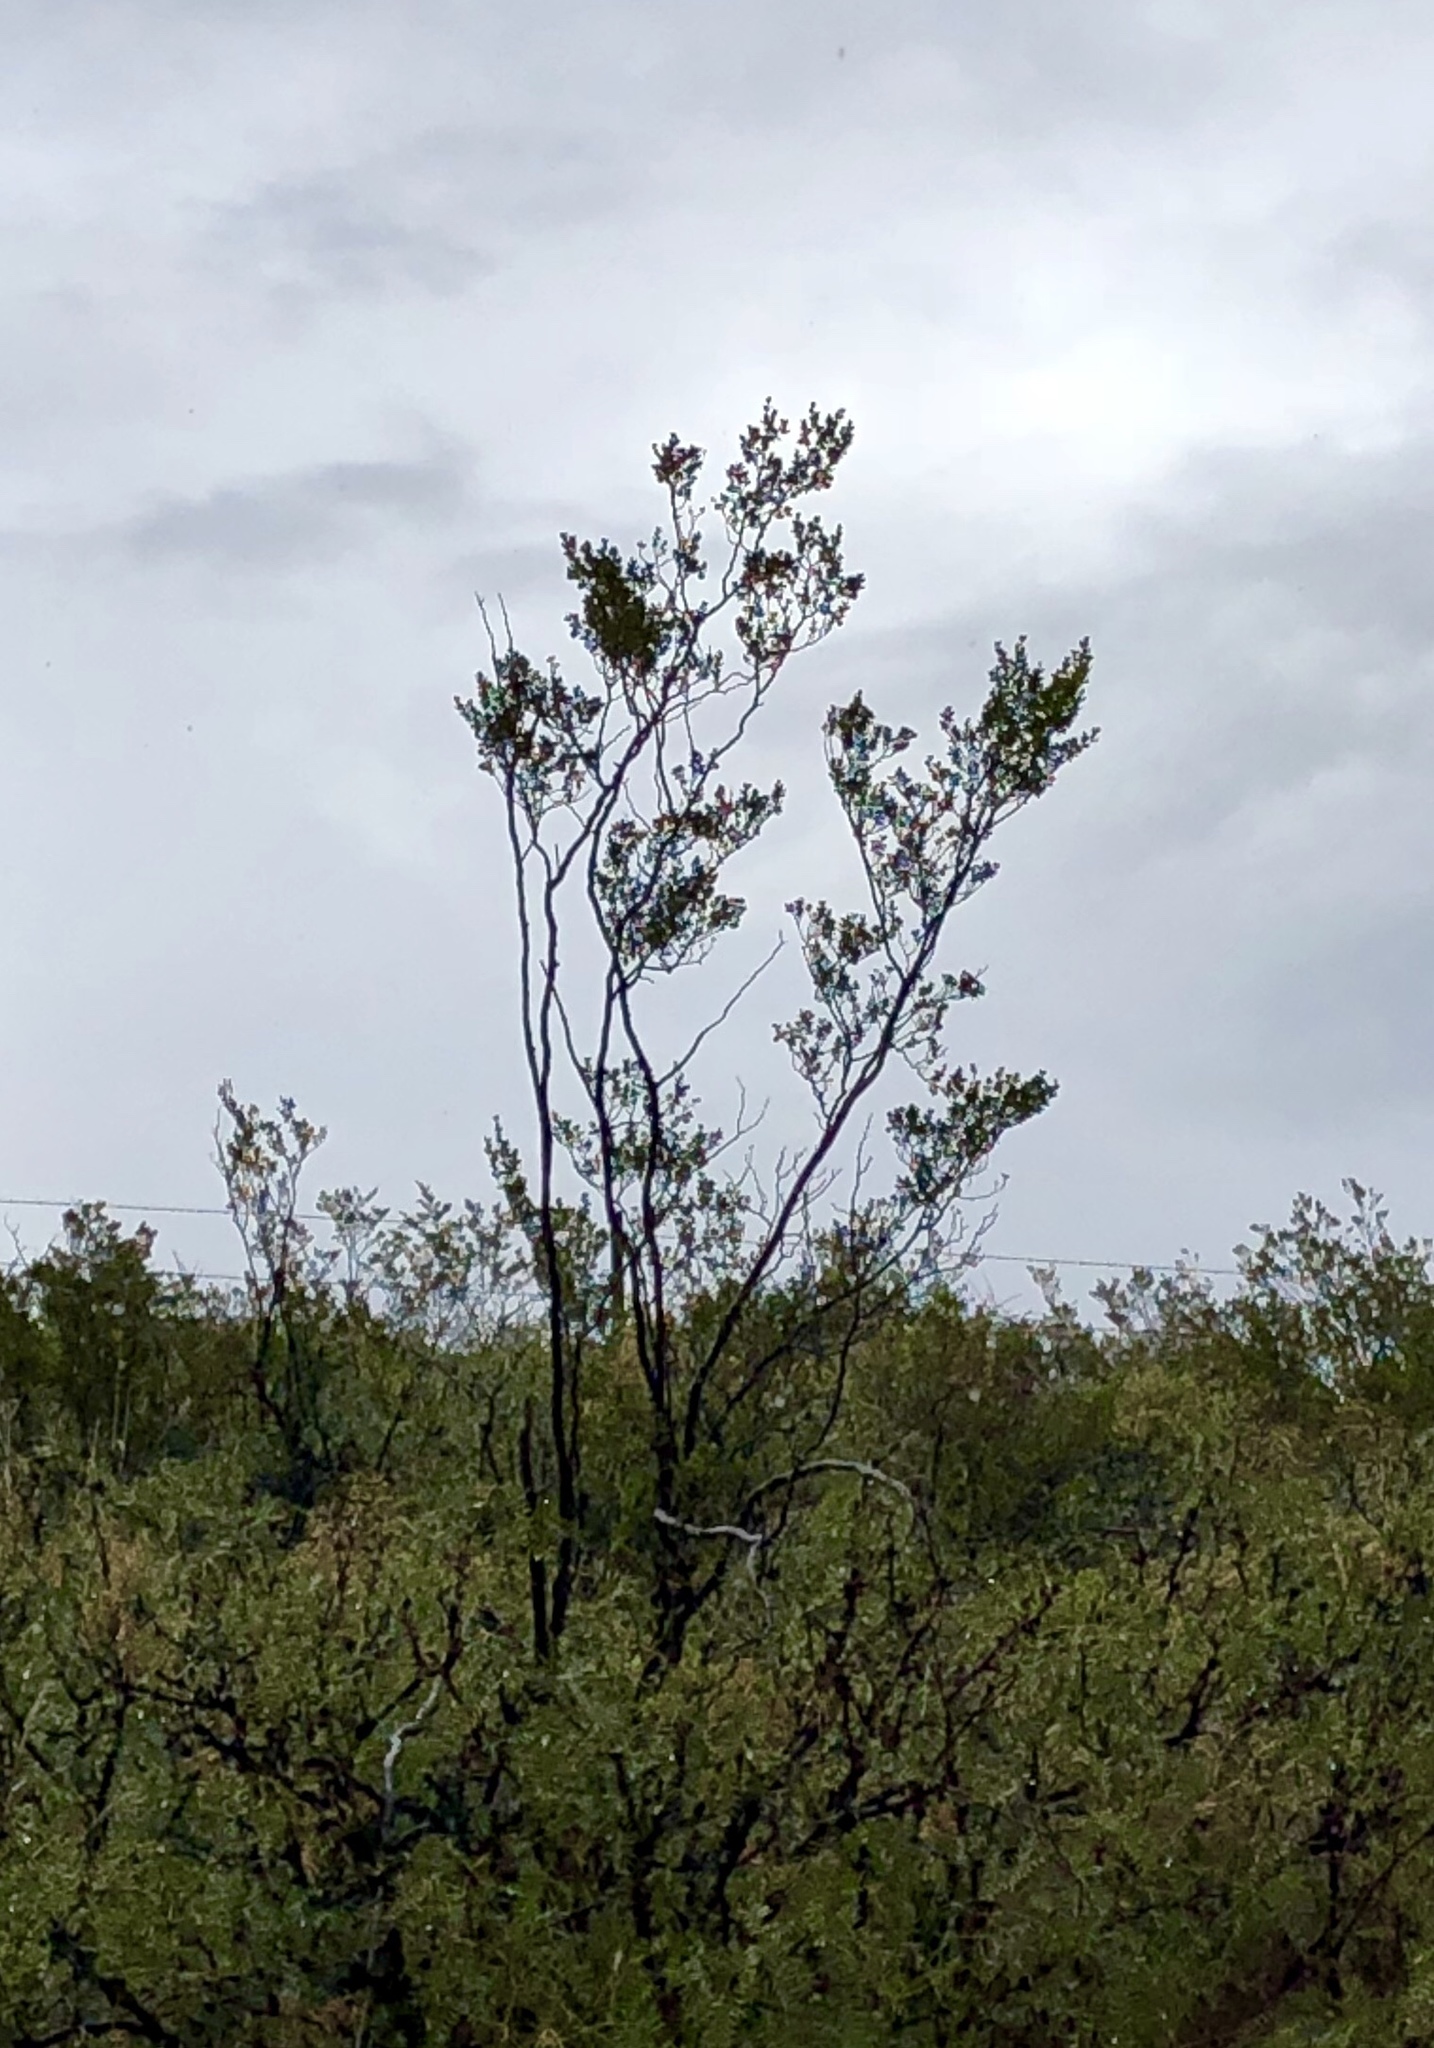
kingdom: Plantae
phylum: Tracheophyta
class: Magnoliopsida
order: Zygophyllales
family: Zygophyllaceae
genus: Larrea
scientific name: Larrea tridentata
